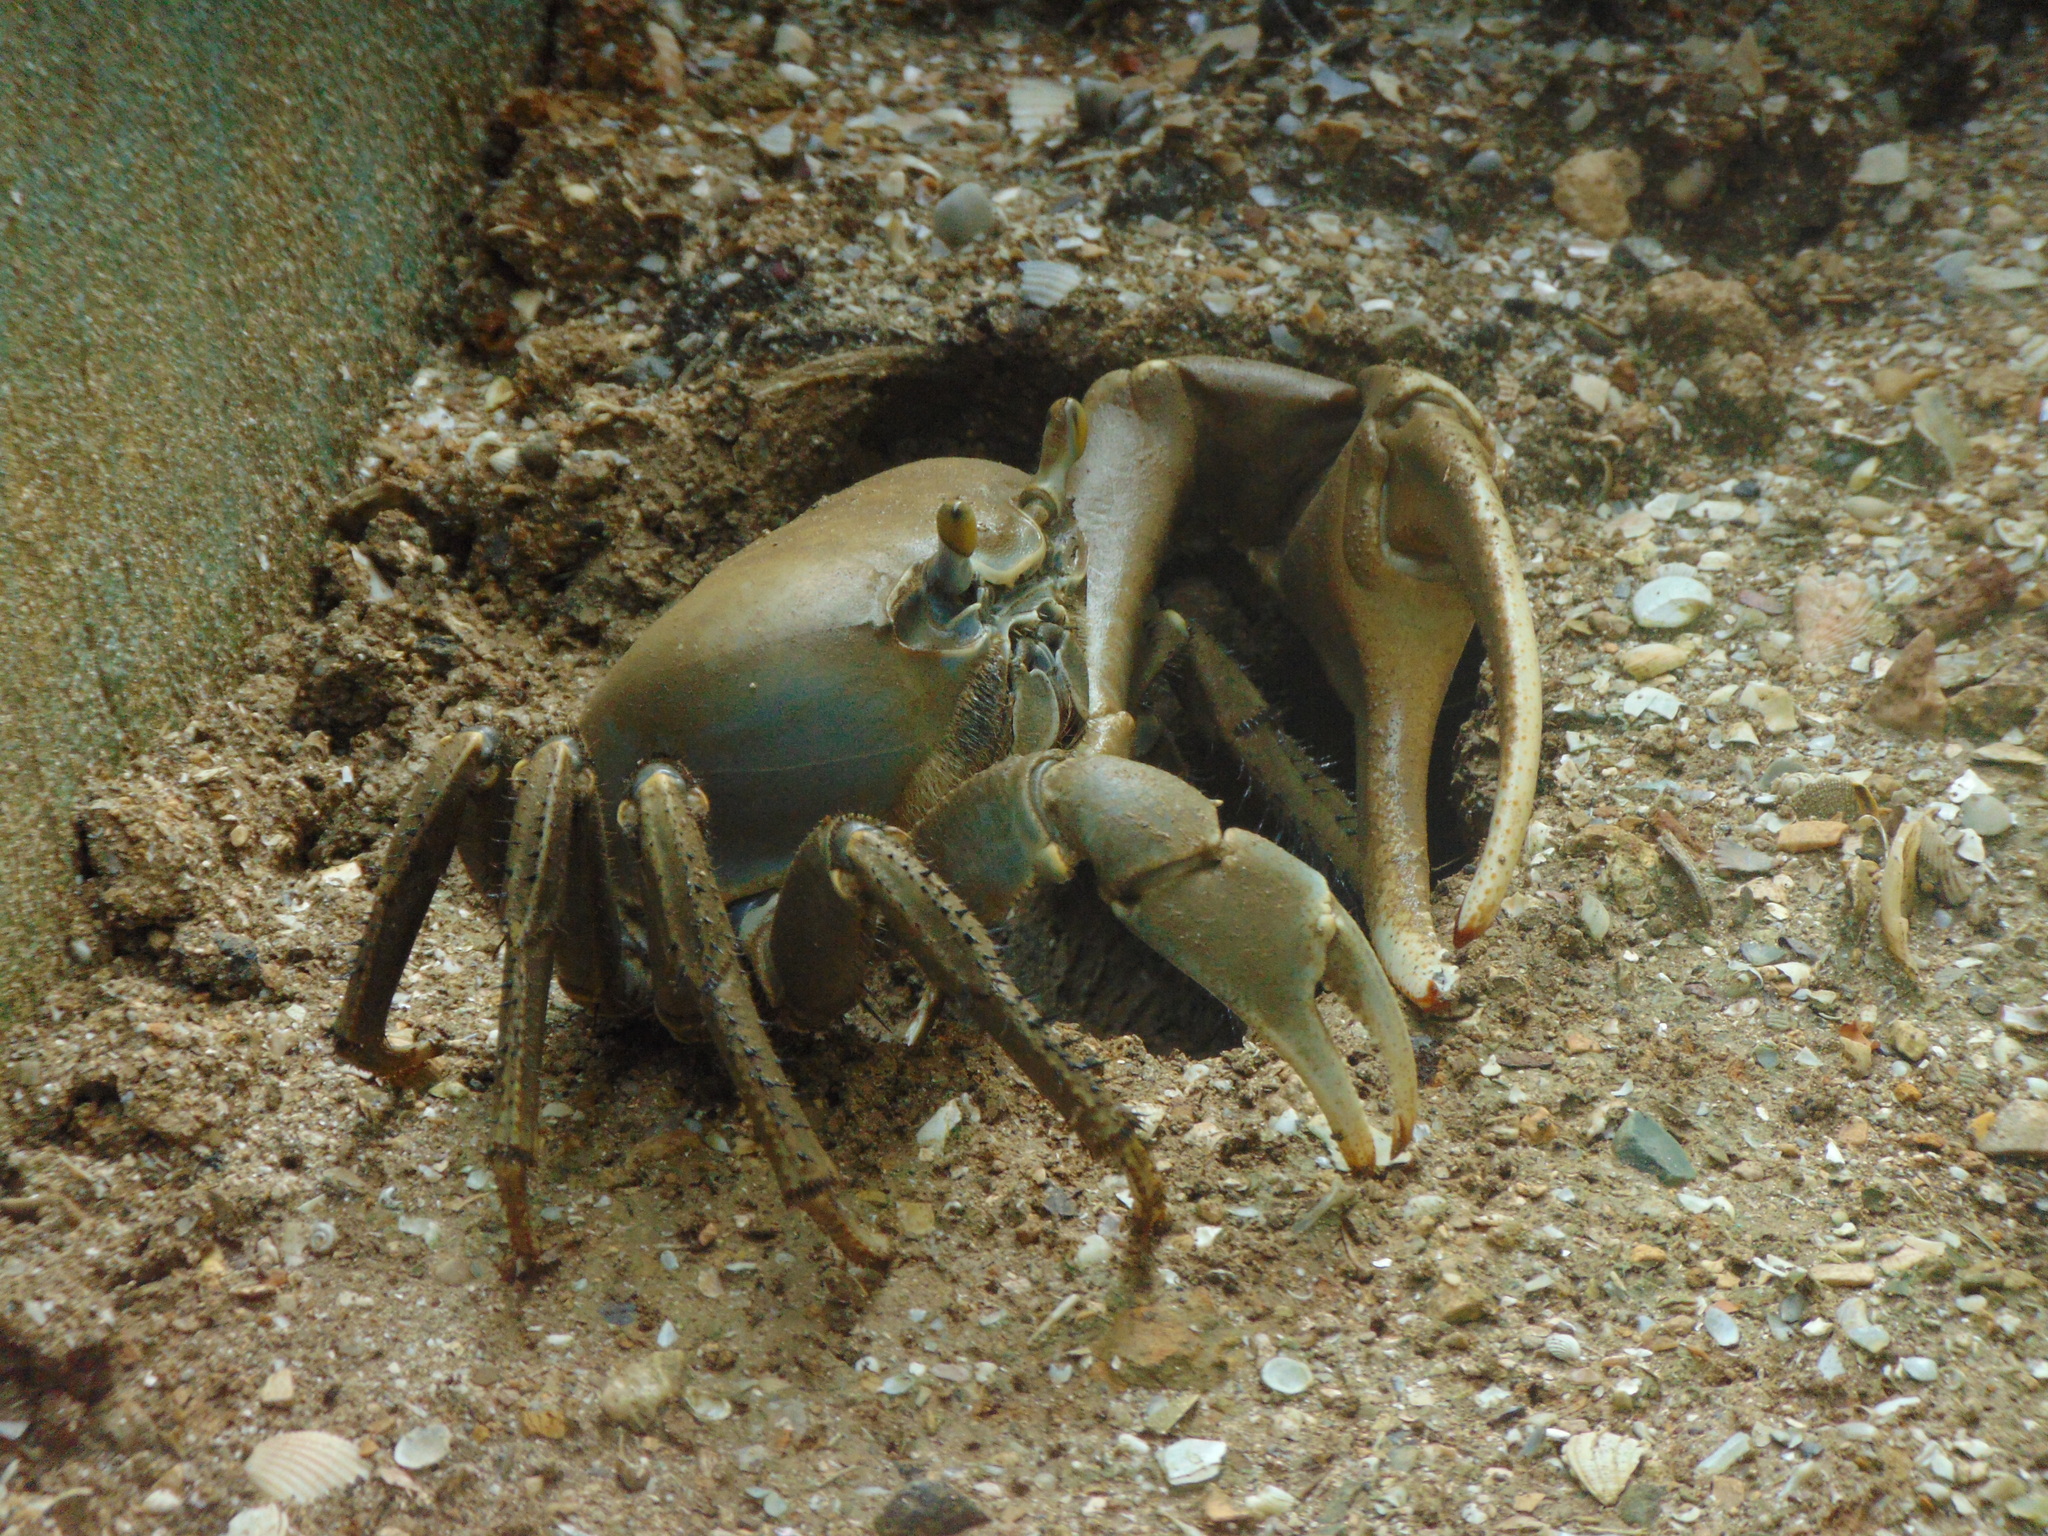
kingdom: Animalia
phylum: Arthropoda
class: Malacostraca
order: Decapoda
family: Gecarcinidae
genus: Cardisoma
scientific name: Cardisoma guanhumi
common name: Great land crab
